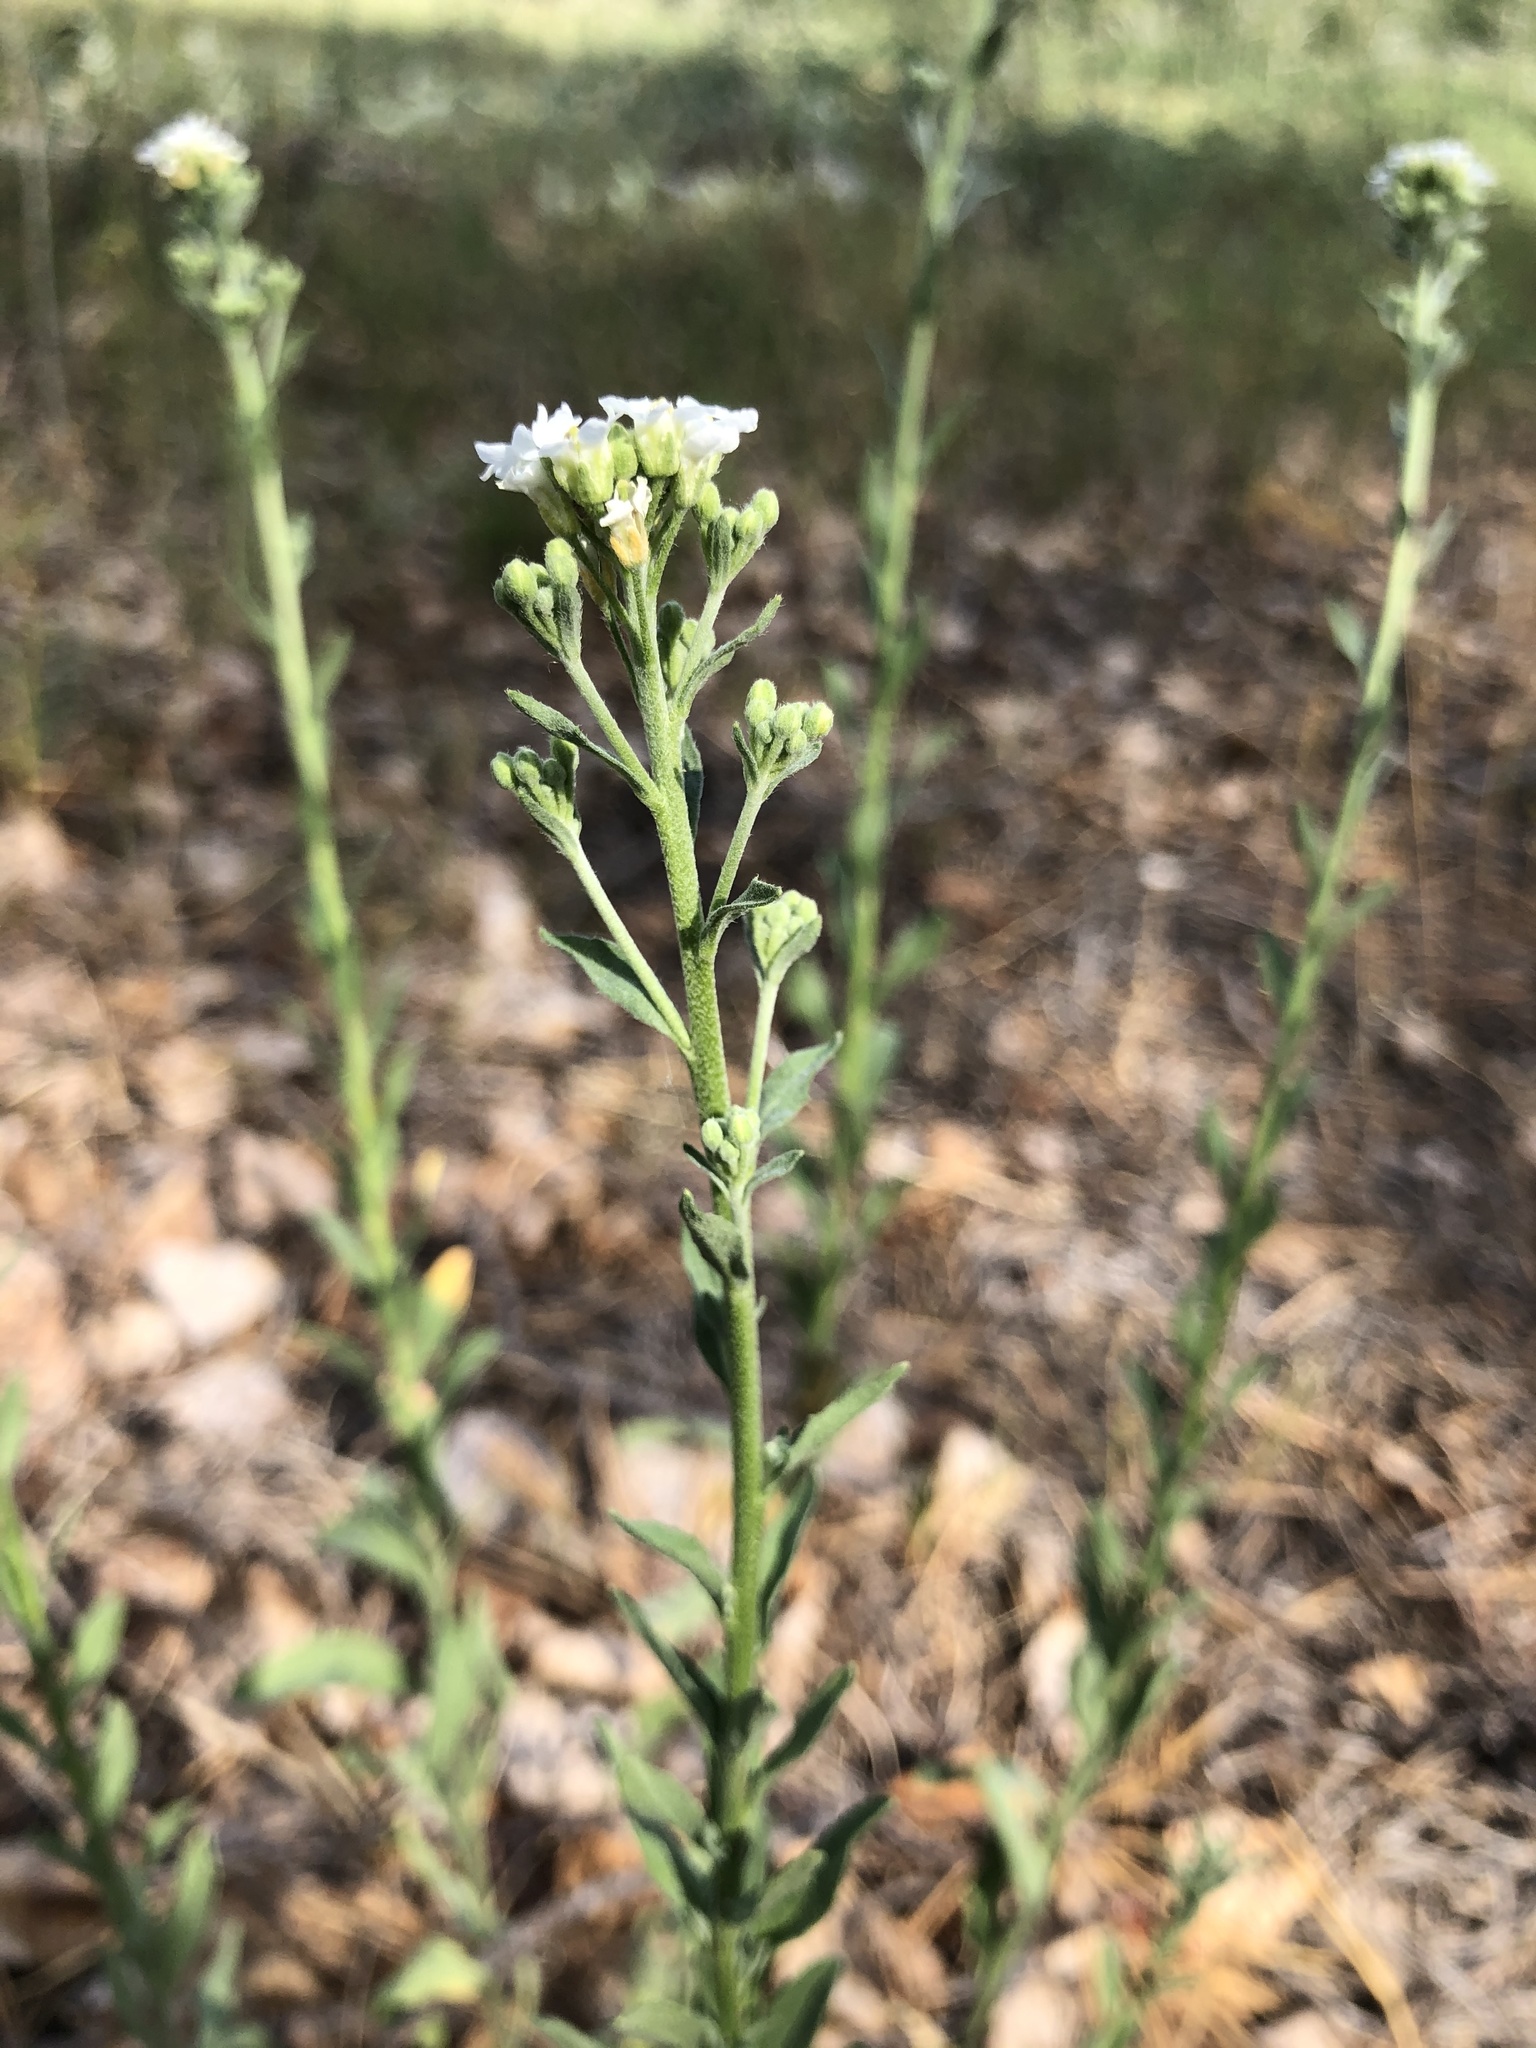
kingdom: Plantae
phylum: Tracheophyta
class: Magnoliopsida
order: Brassicales
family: Brassicaceae
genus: Berteroa
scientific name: Berteroa incana
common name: Hoary alison
